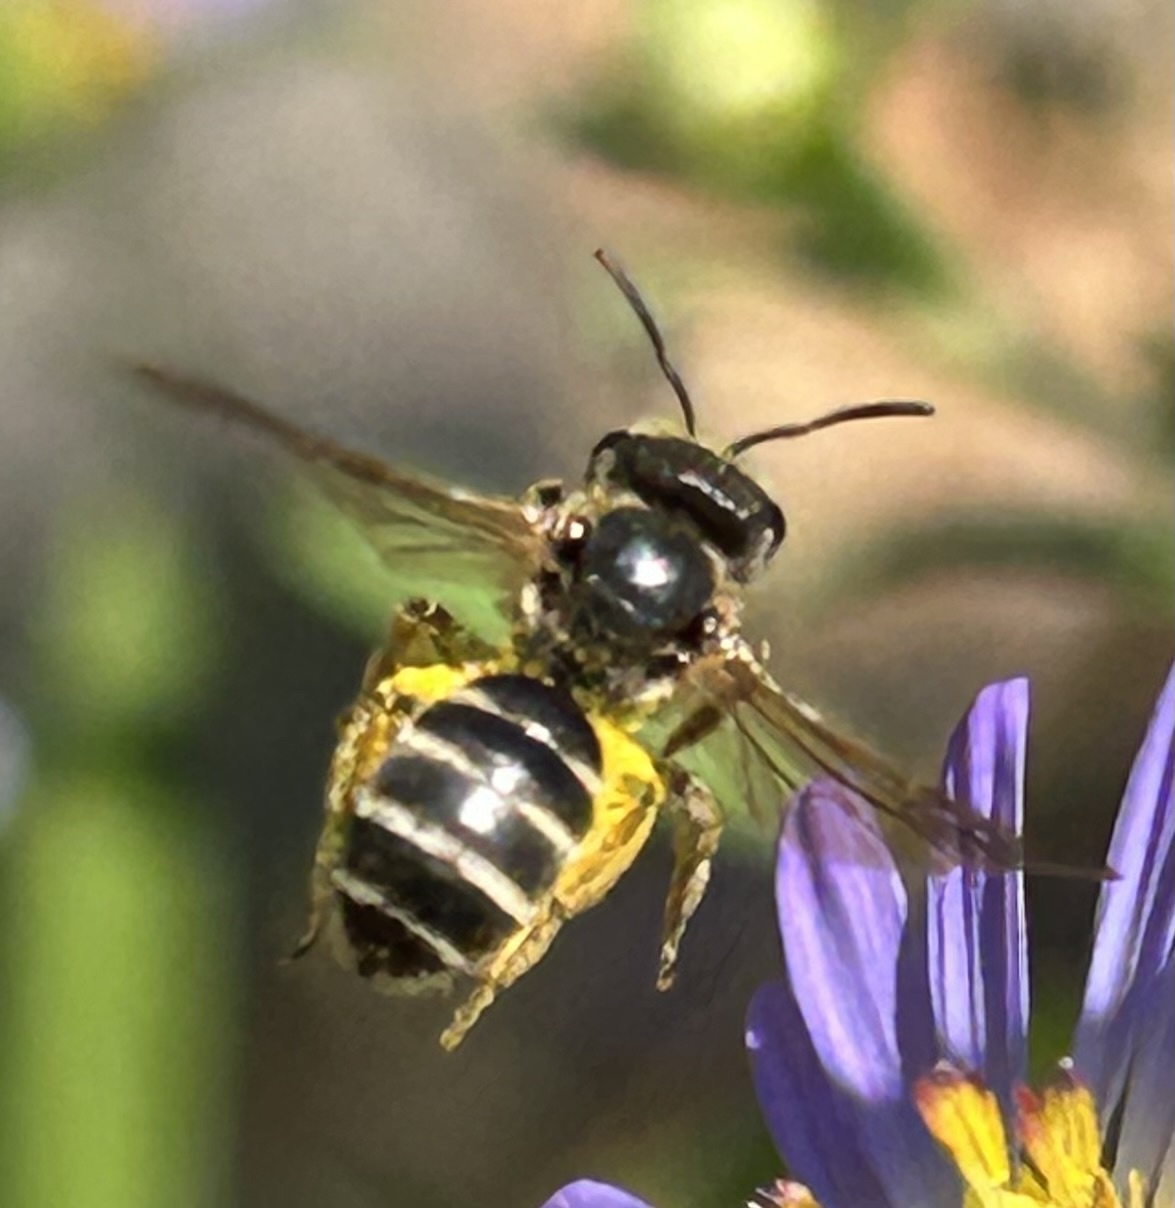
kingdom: Animalia
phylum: Arthropoda
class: Insecta
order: Hymenoptera
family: Halictidae
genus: Halictus
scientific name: Halictus ligatus
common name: Ligated furrow bee
